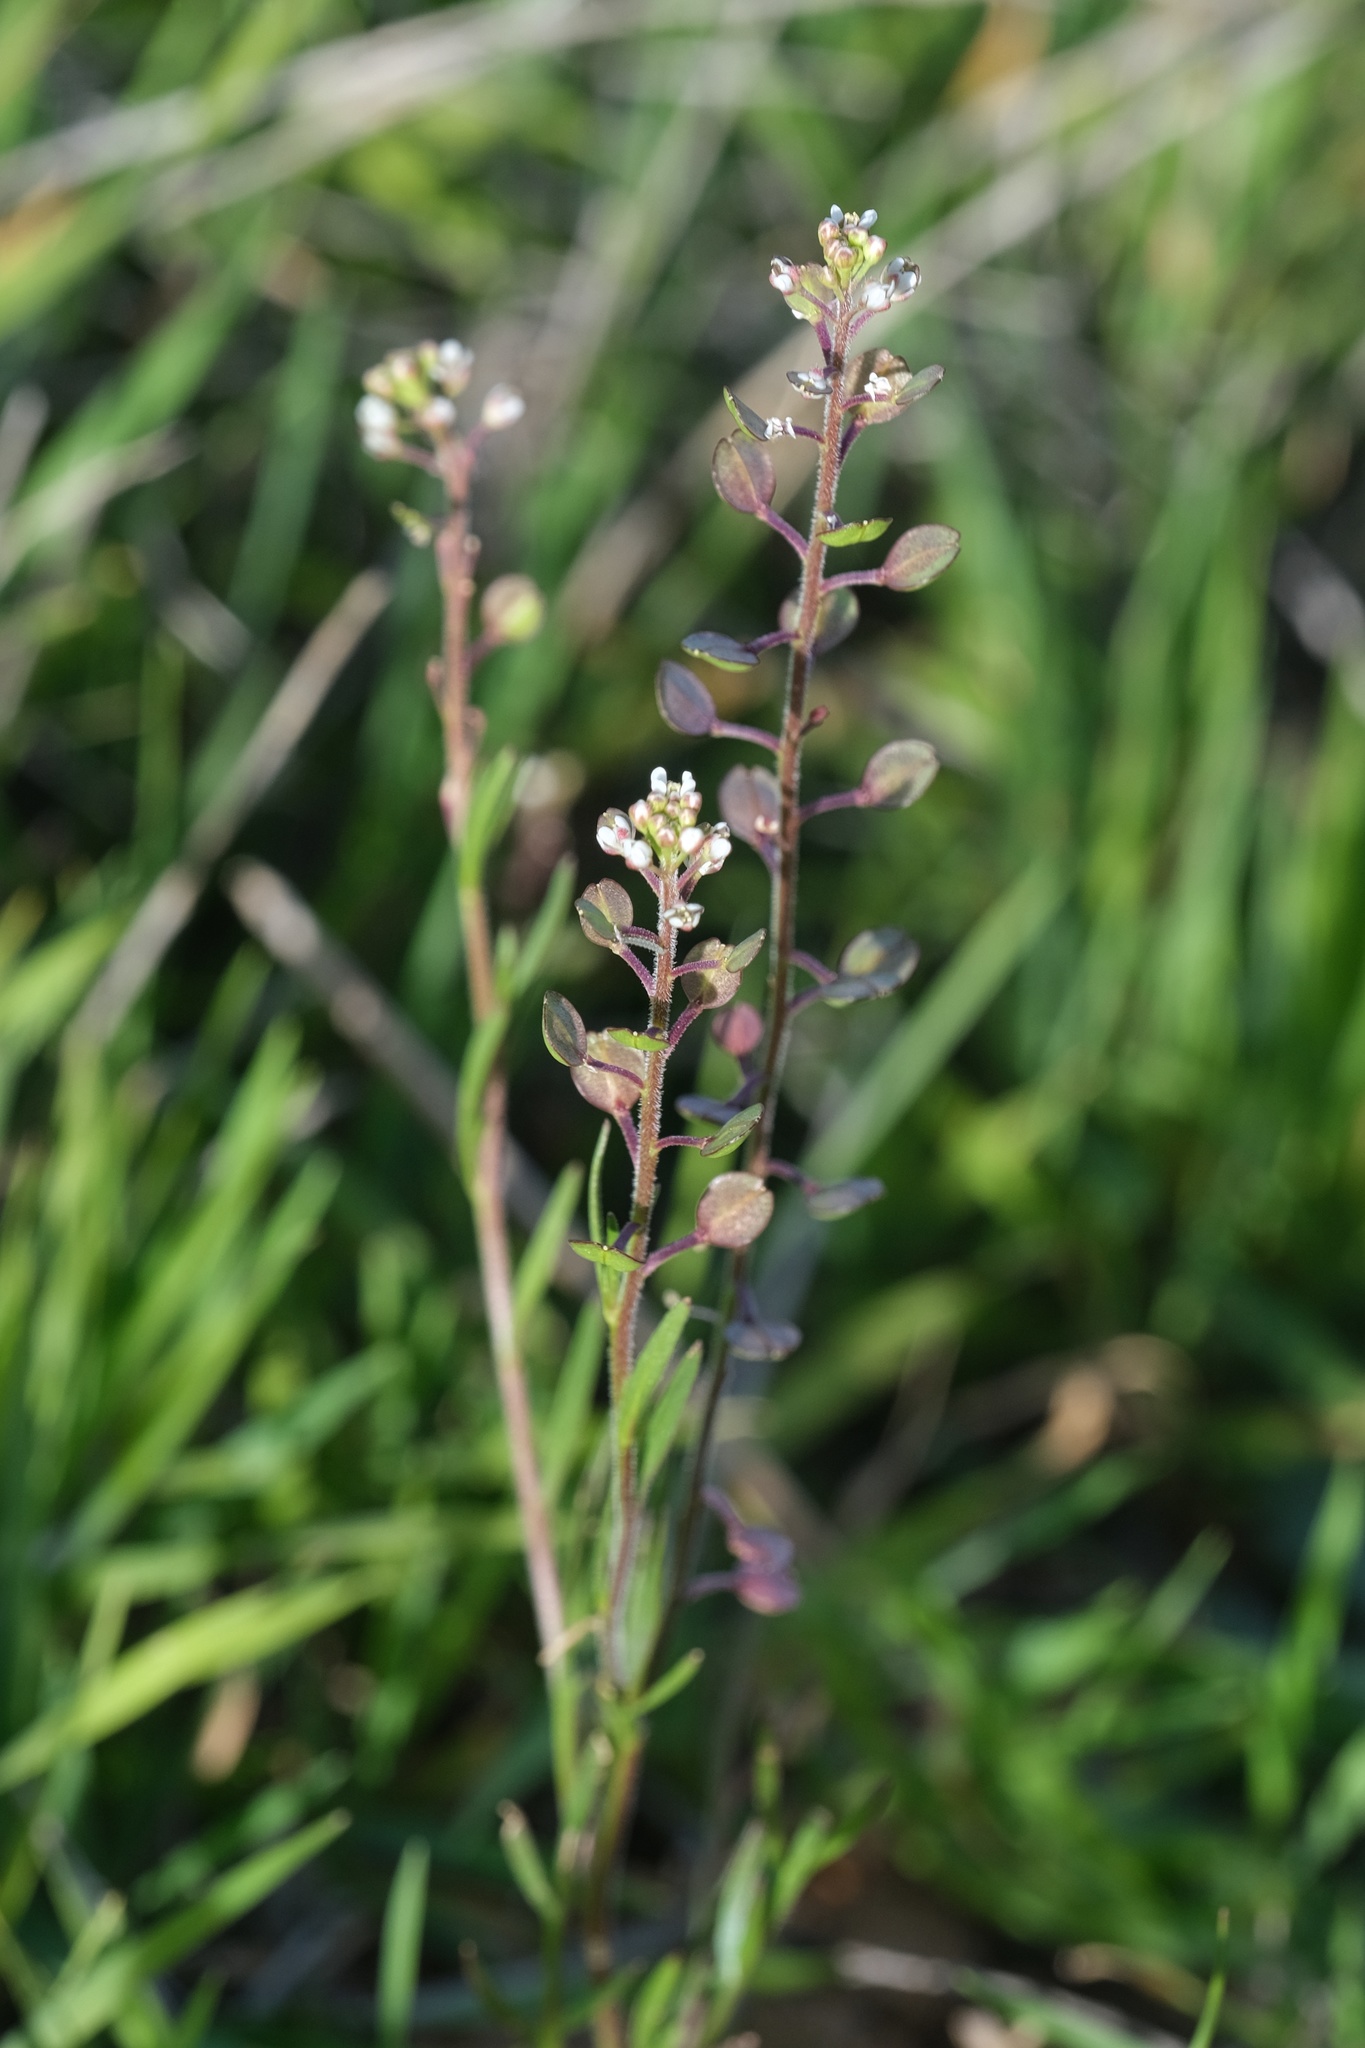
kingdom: Plantae
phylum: Tracheophyta
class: Magnoliopsida
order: Brassicales
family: Brassicaceae
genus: Lepidium
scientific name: Lepidium nitidum
